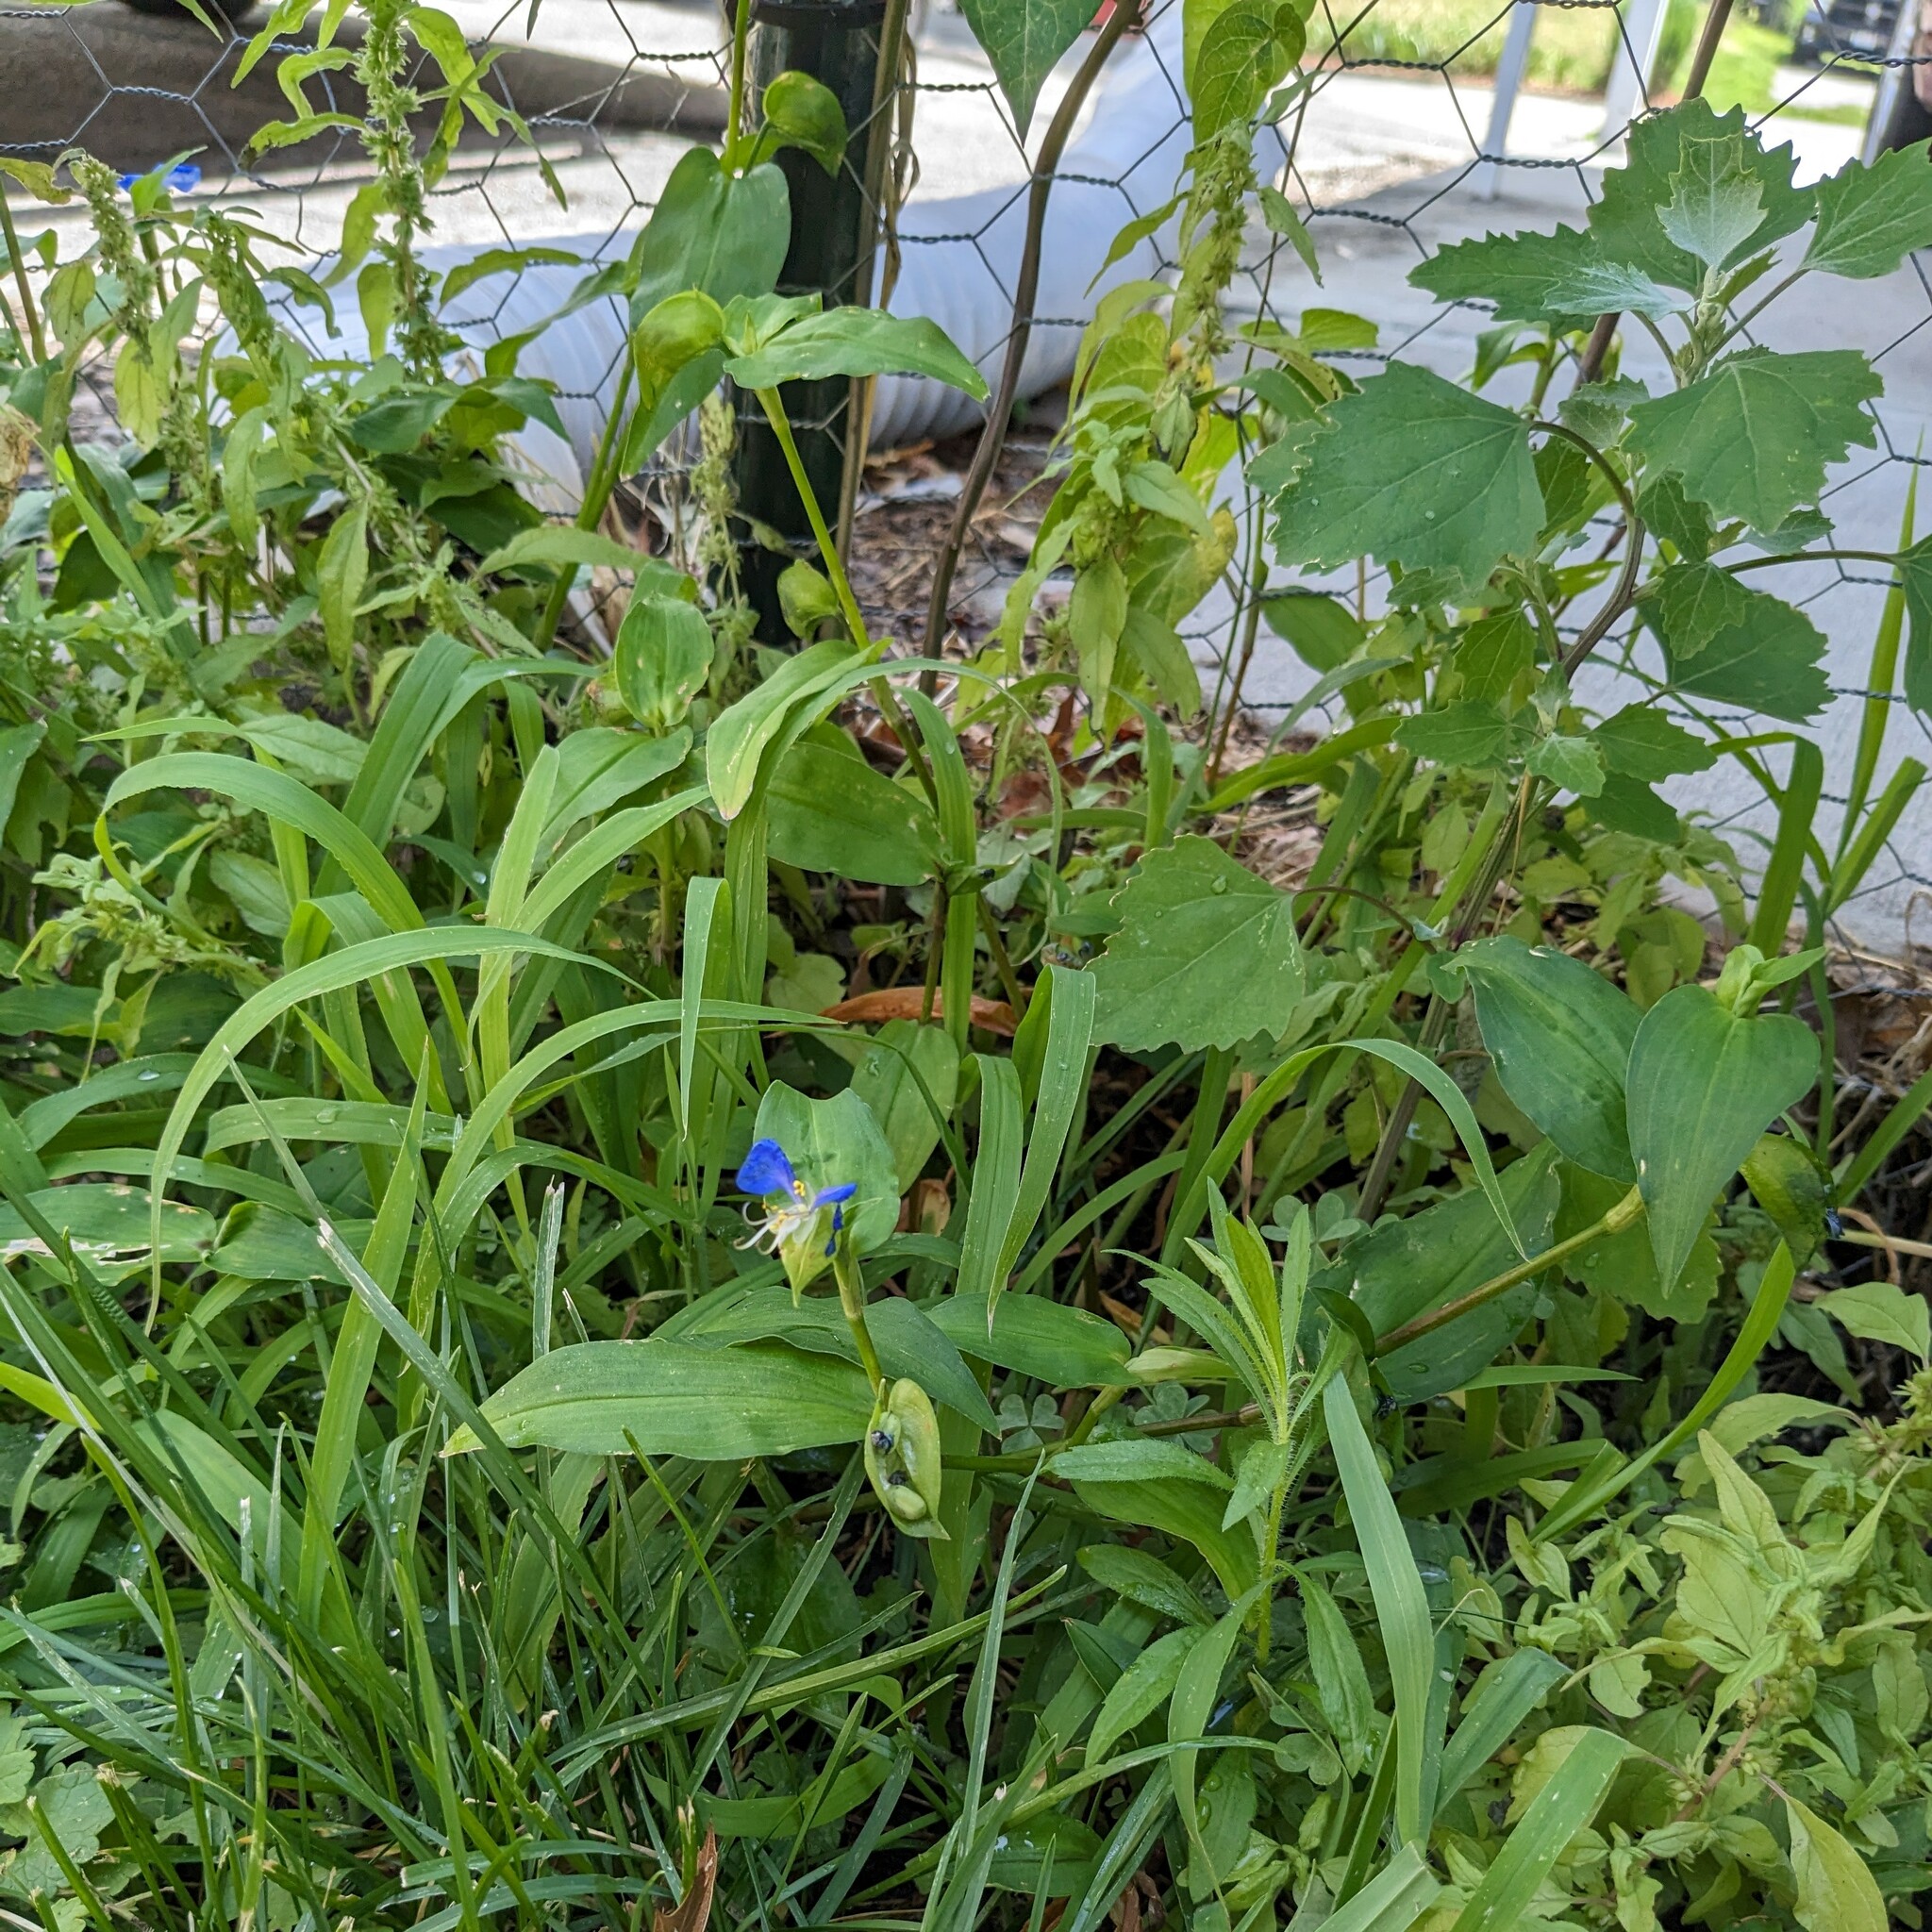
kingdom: Plantae
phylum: Tracheophyta
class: Liliopsida
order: Commelinales
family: Commelinaceae
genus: Commelina
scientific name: Commelina communis
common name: Asiatic dayflower
